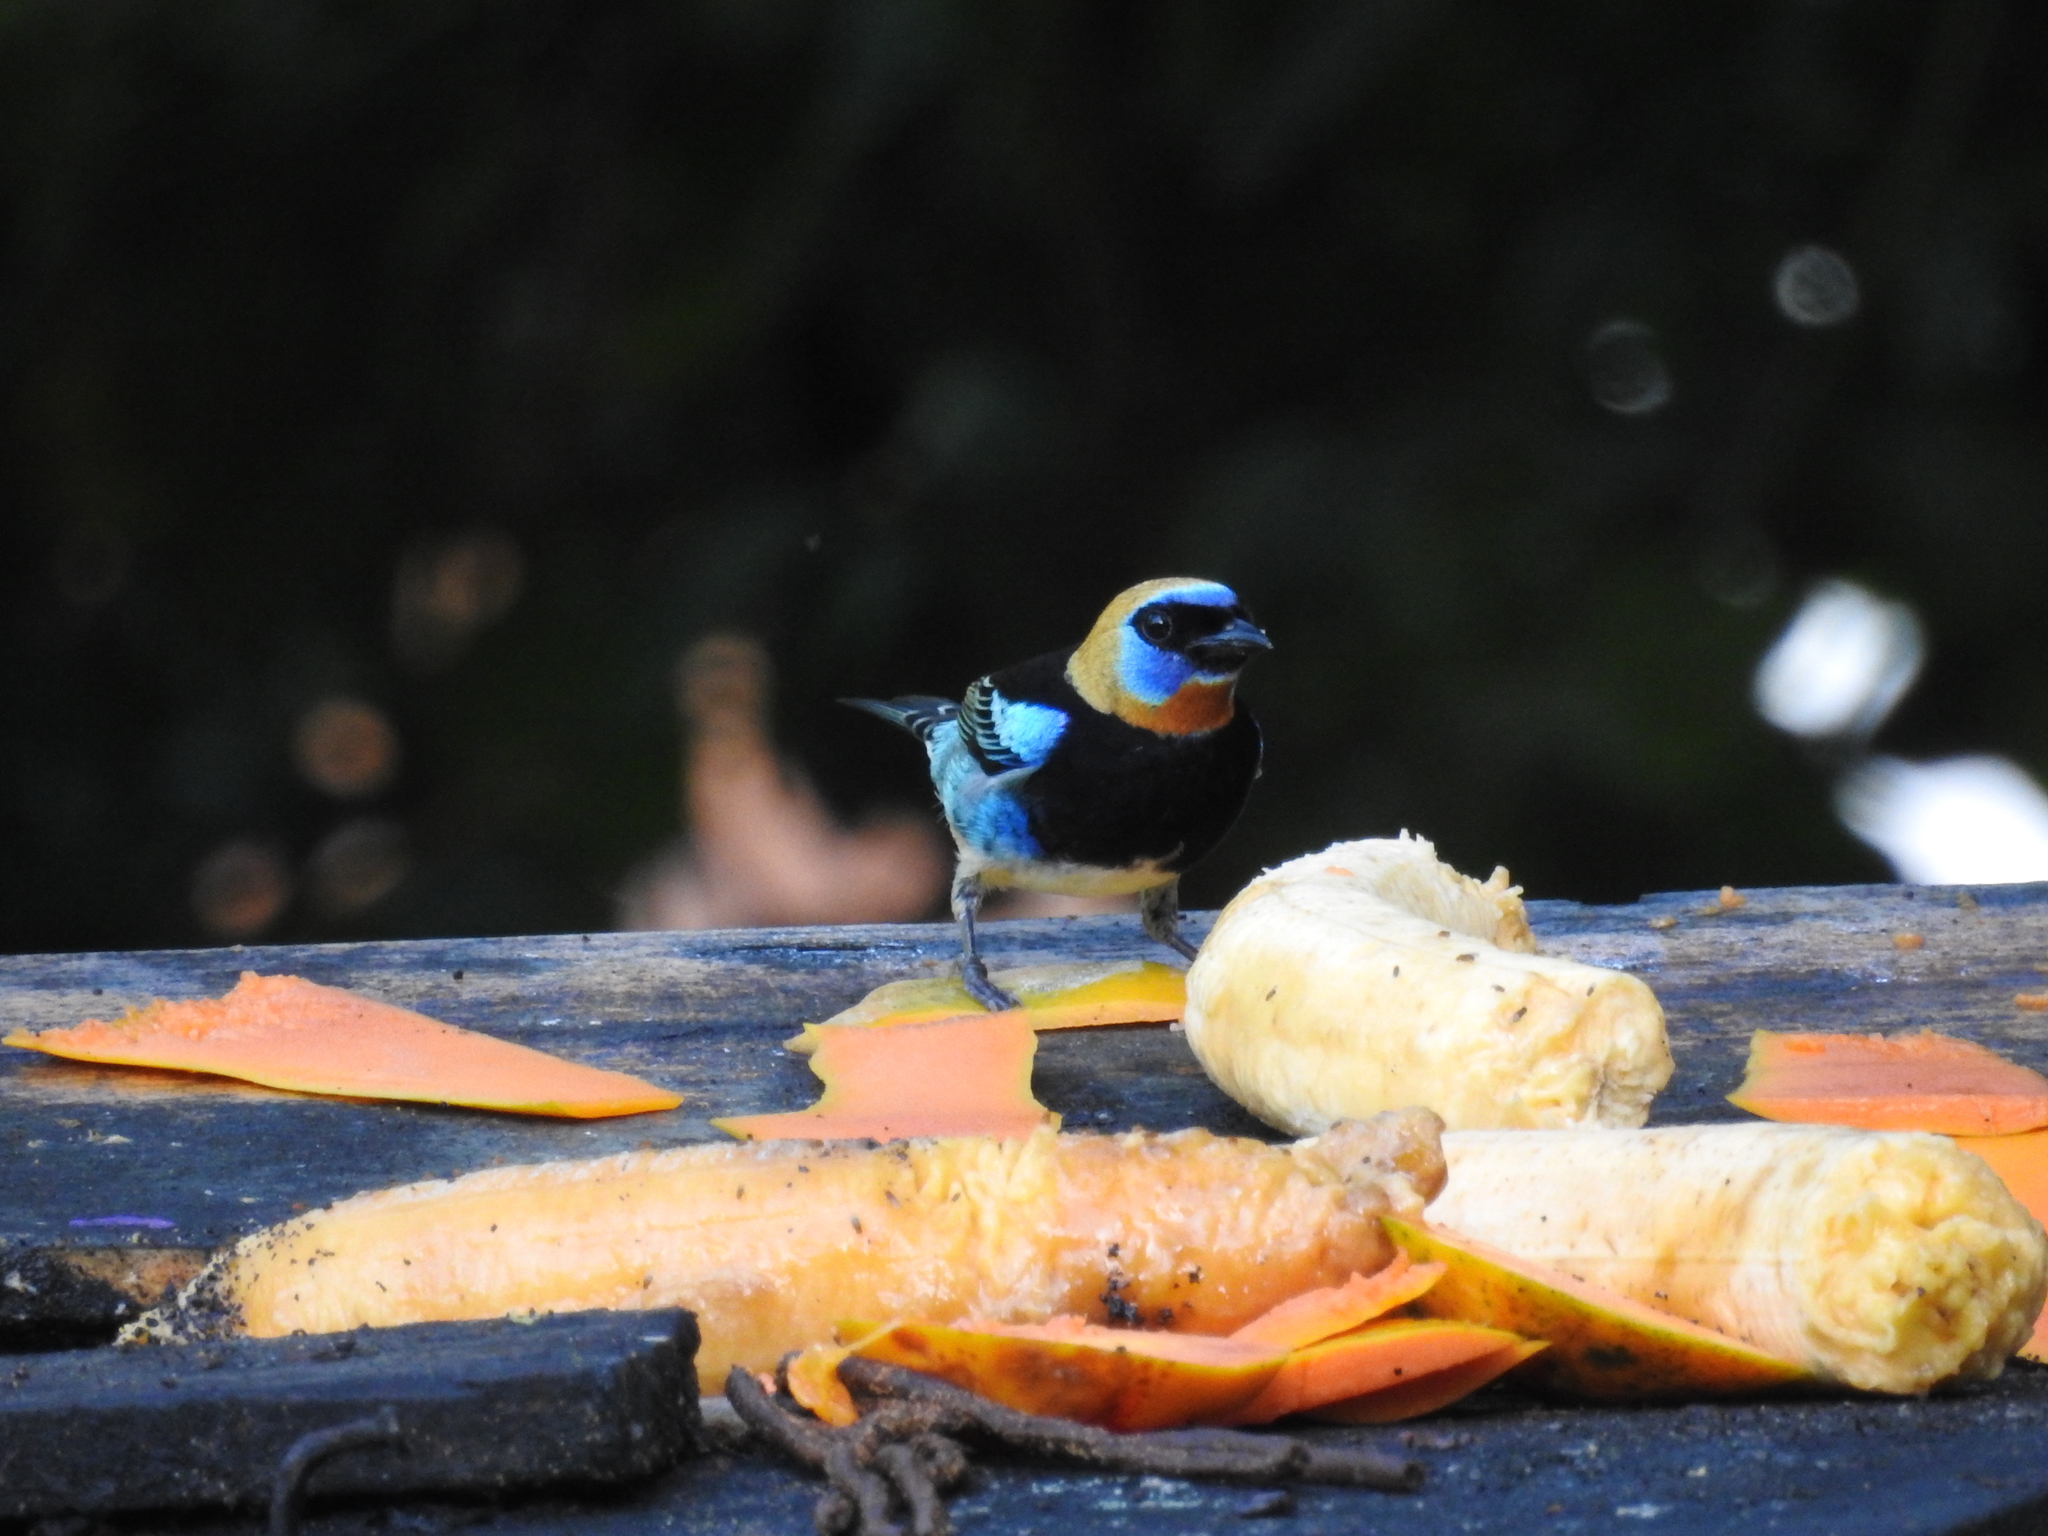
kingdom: Animalia
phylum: Chordata
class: Aves
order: Passeriformes
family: Thraupidae
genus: Stilpnia
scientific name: Stilpnia larvata
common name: Golden-hooded tanager
